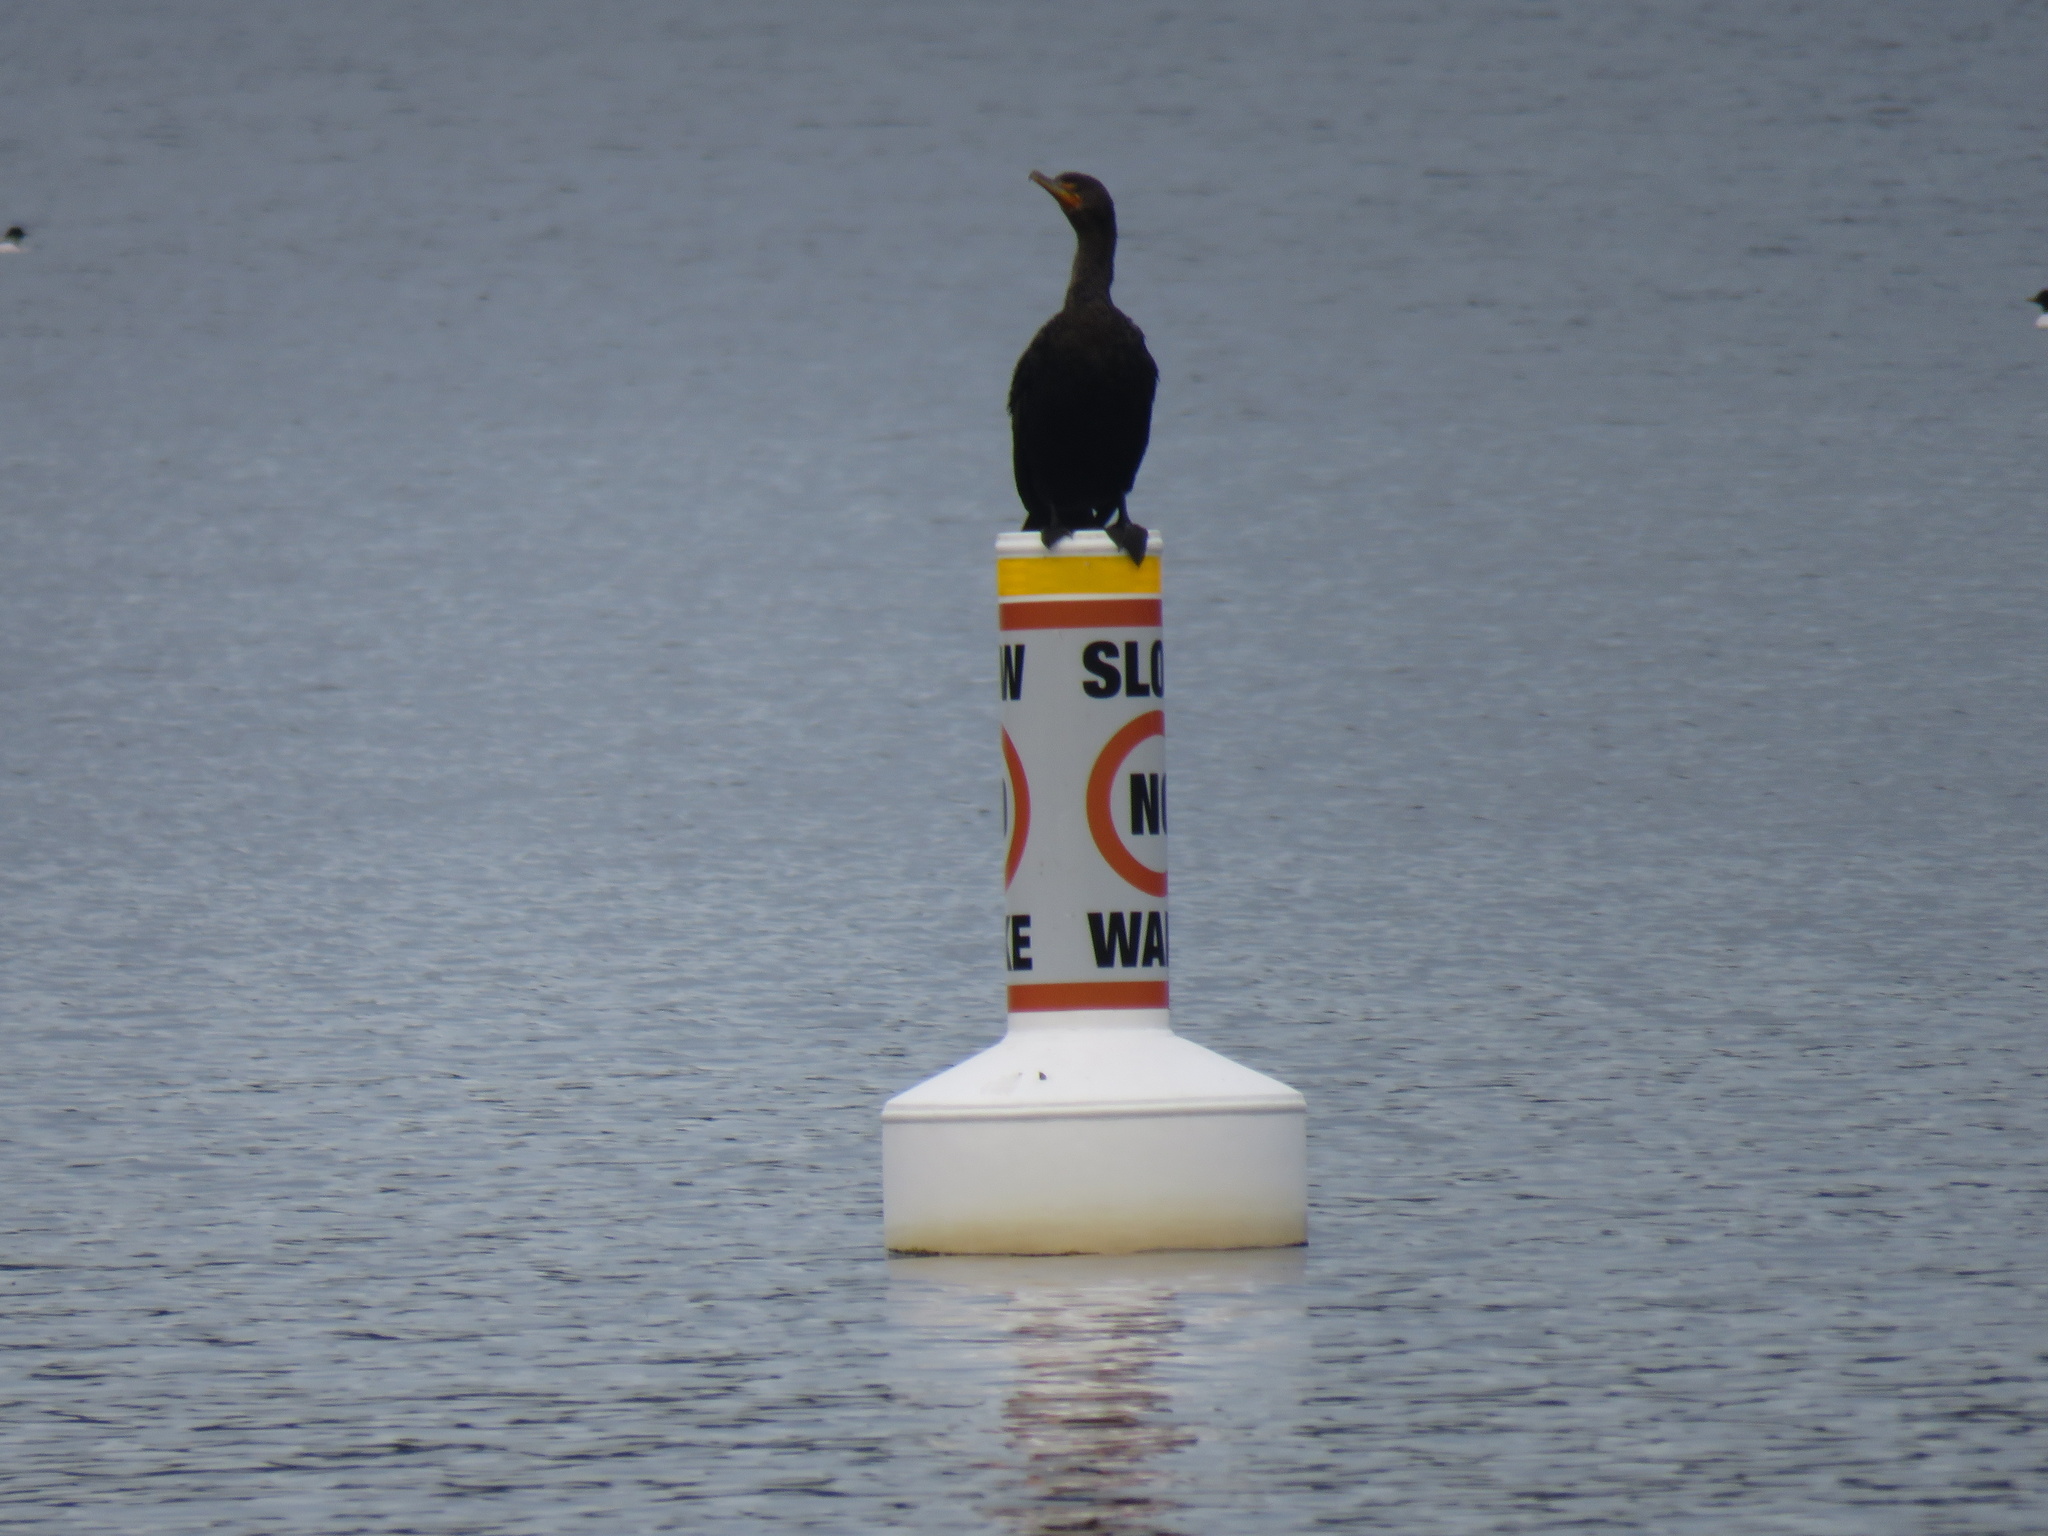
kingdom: Animalia
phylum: Chordata
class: Aves
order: Suliformes
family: Phalacrocoracidae
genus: Phalacrocorax
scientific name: Phalacrocorax auritus
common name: Double-crested cormorant
